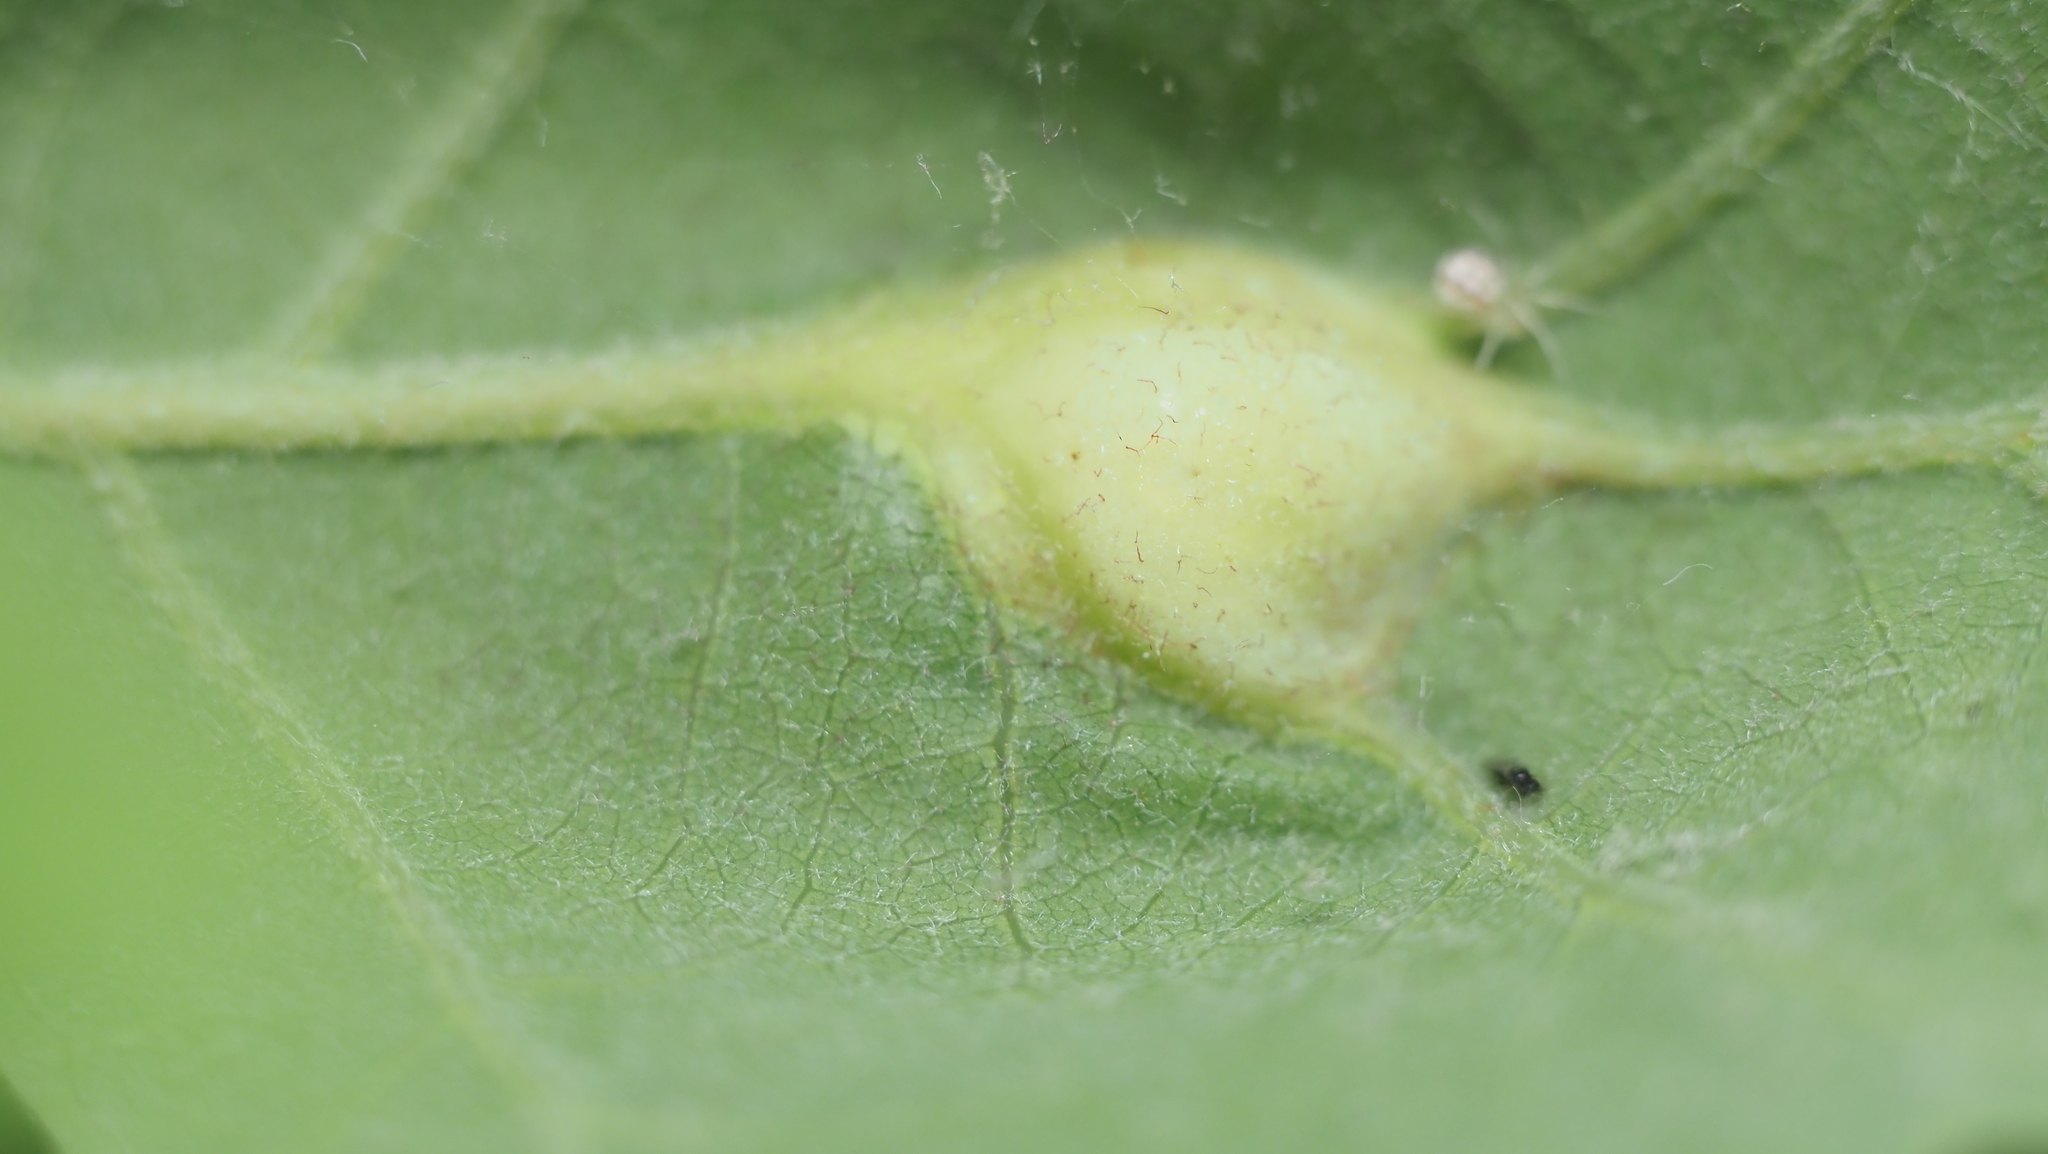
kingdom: Animalia
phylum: Arthropoda
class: Insecta
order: Hymenoptera
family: Cynipidae
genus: Andricus
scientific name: Andricus
